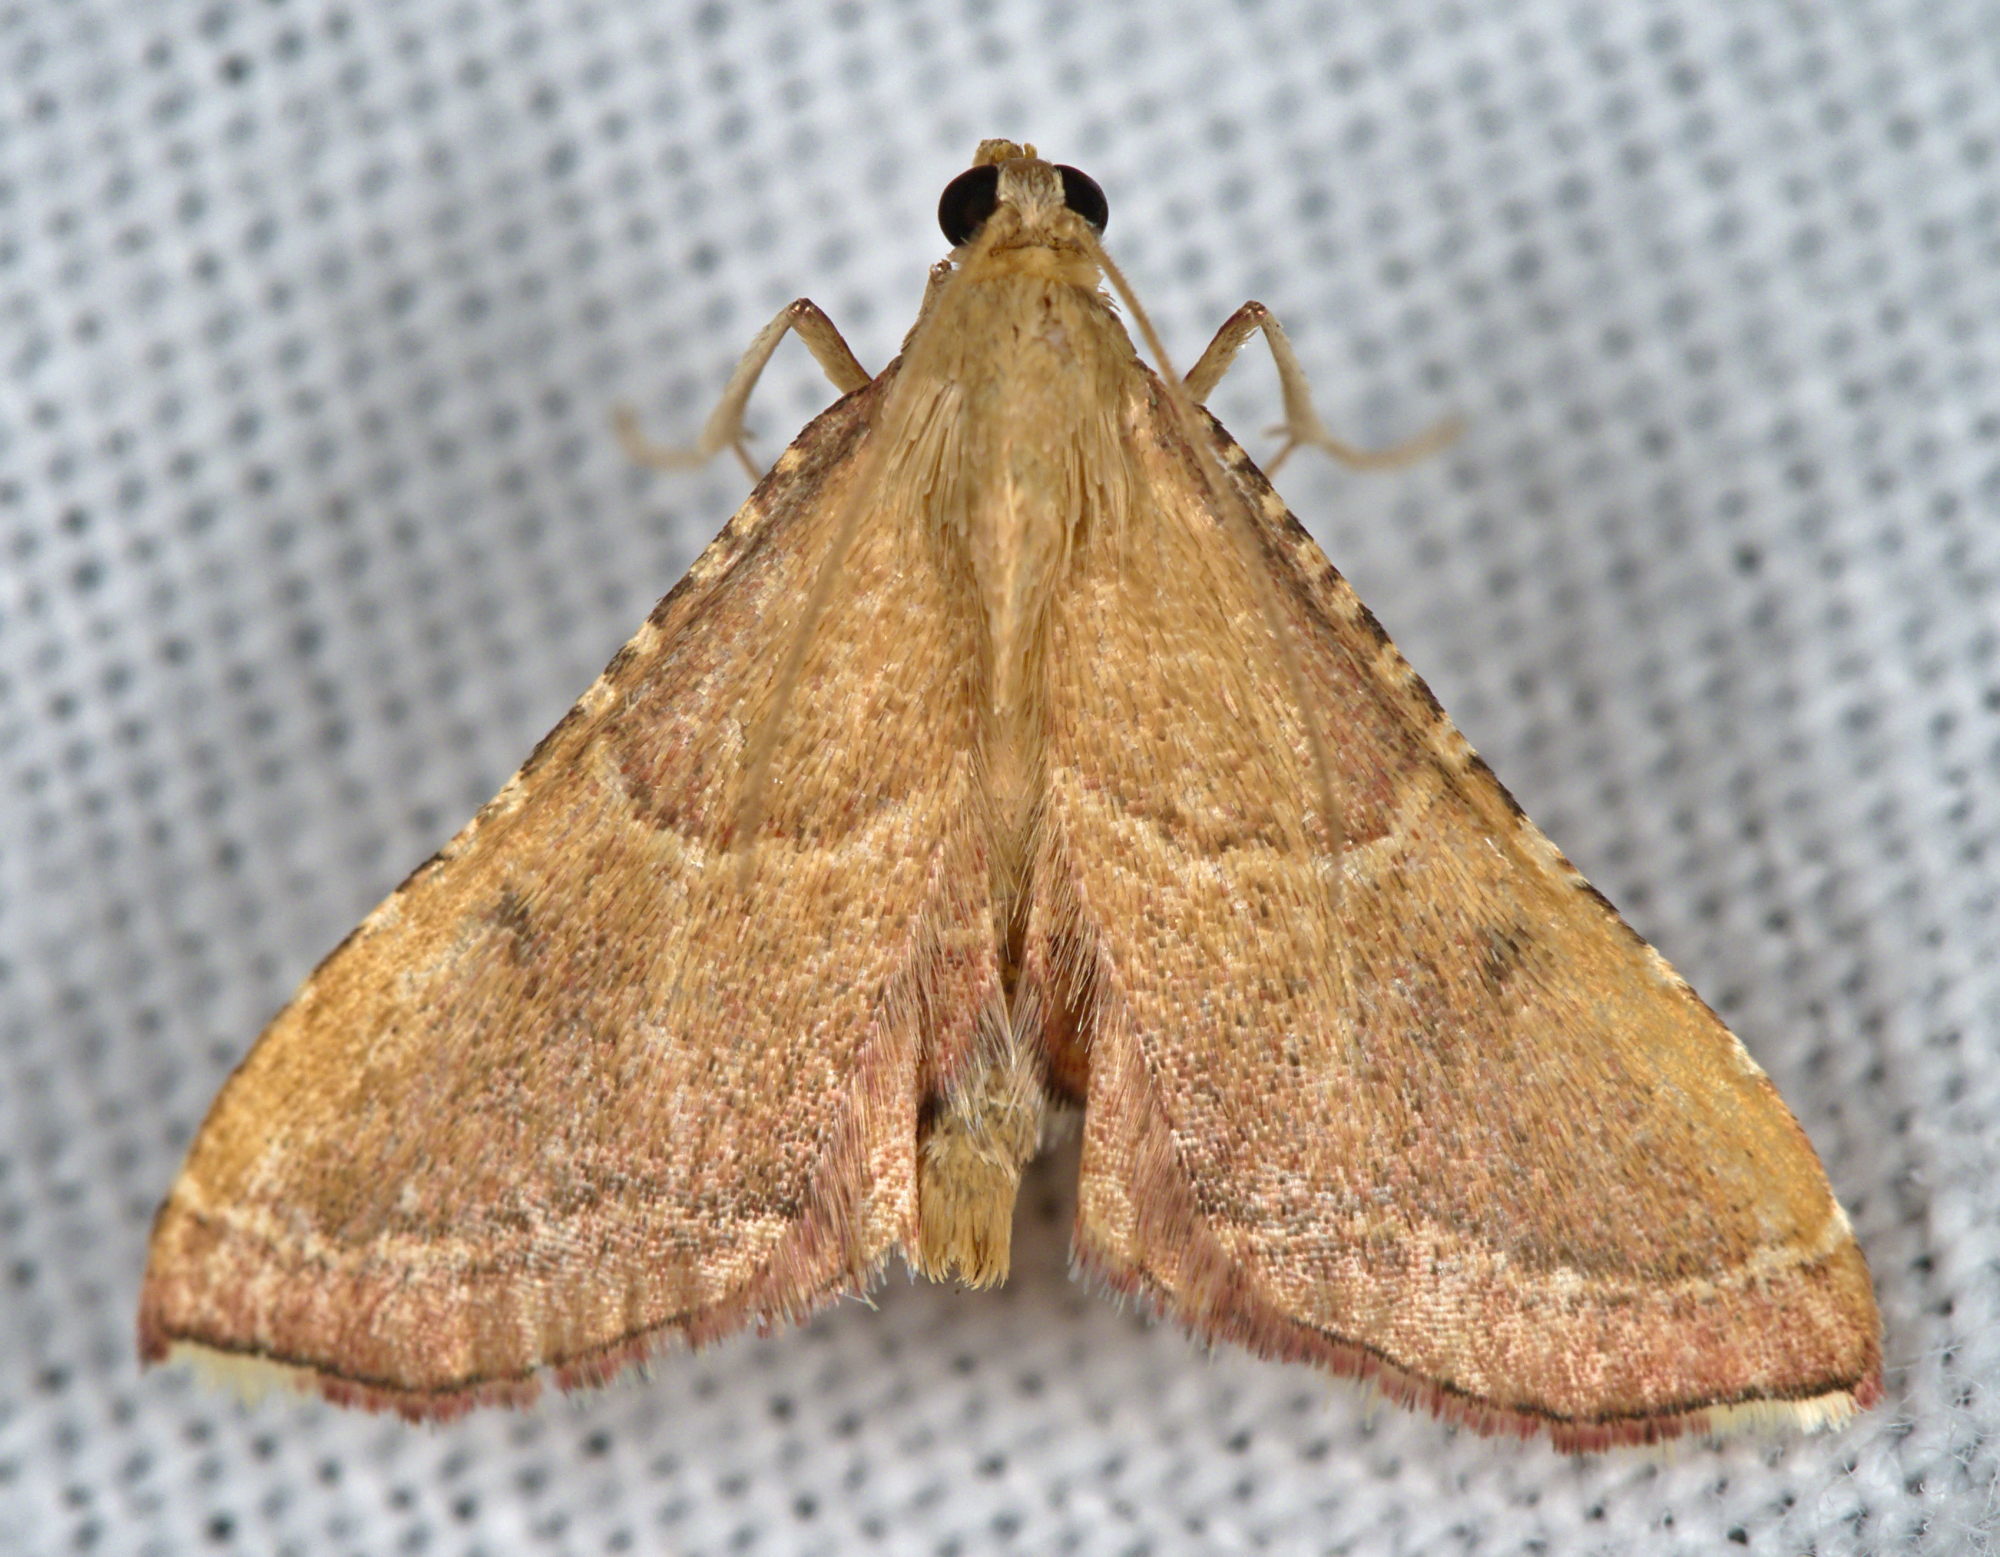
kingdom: Animalia
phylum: Arthropoda
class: Insecta
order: Lepidoptera
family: Pyralidae
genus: Endotricha
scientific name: Endotricha flammealis
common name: Rosy tabby
